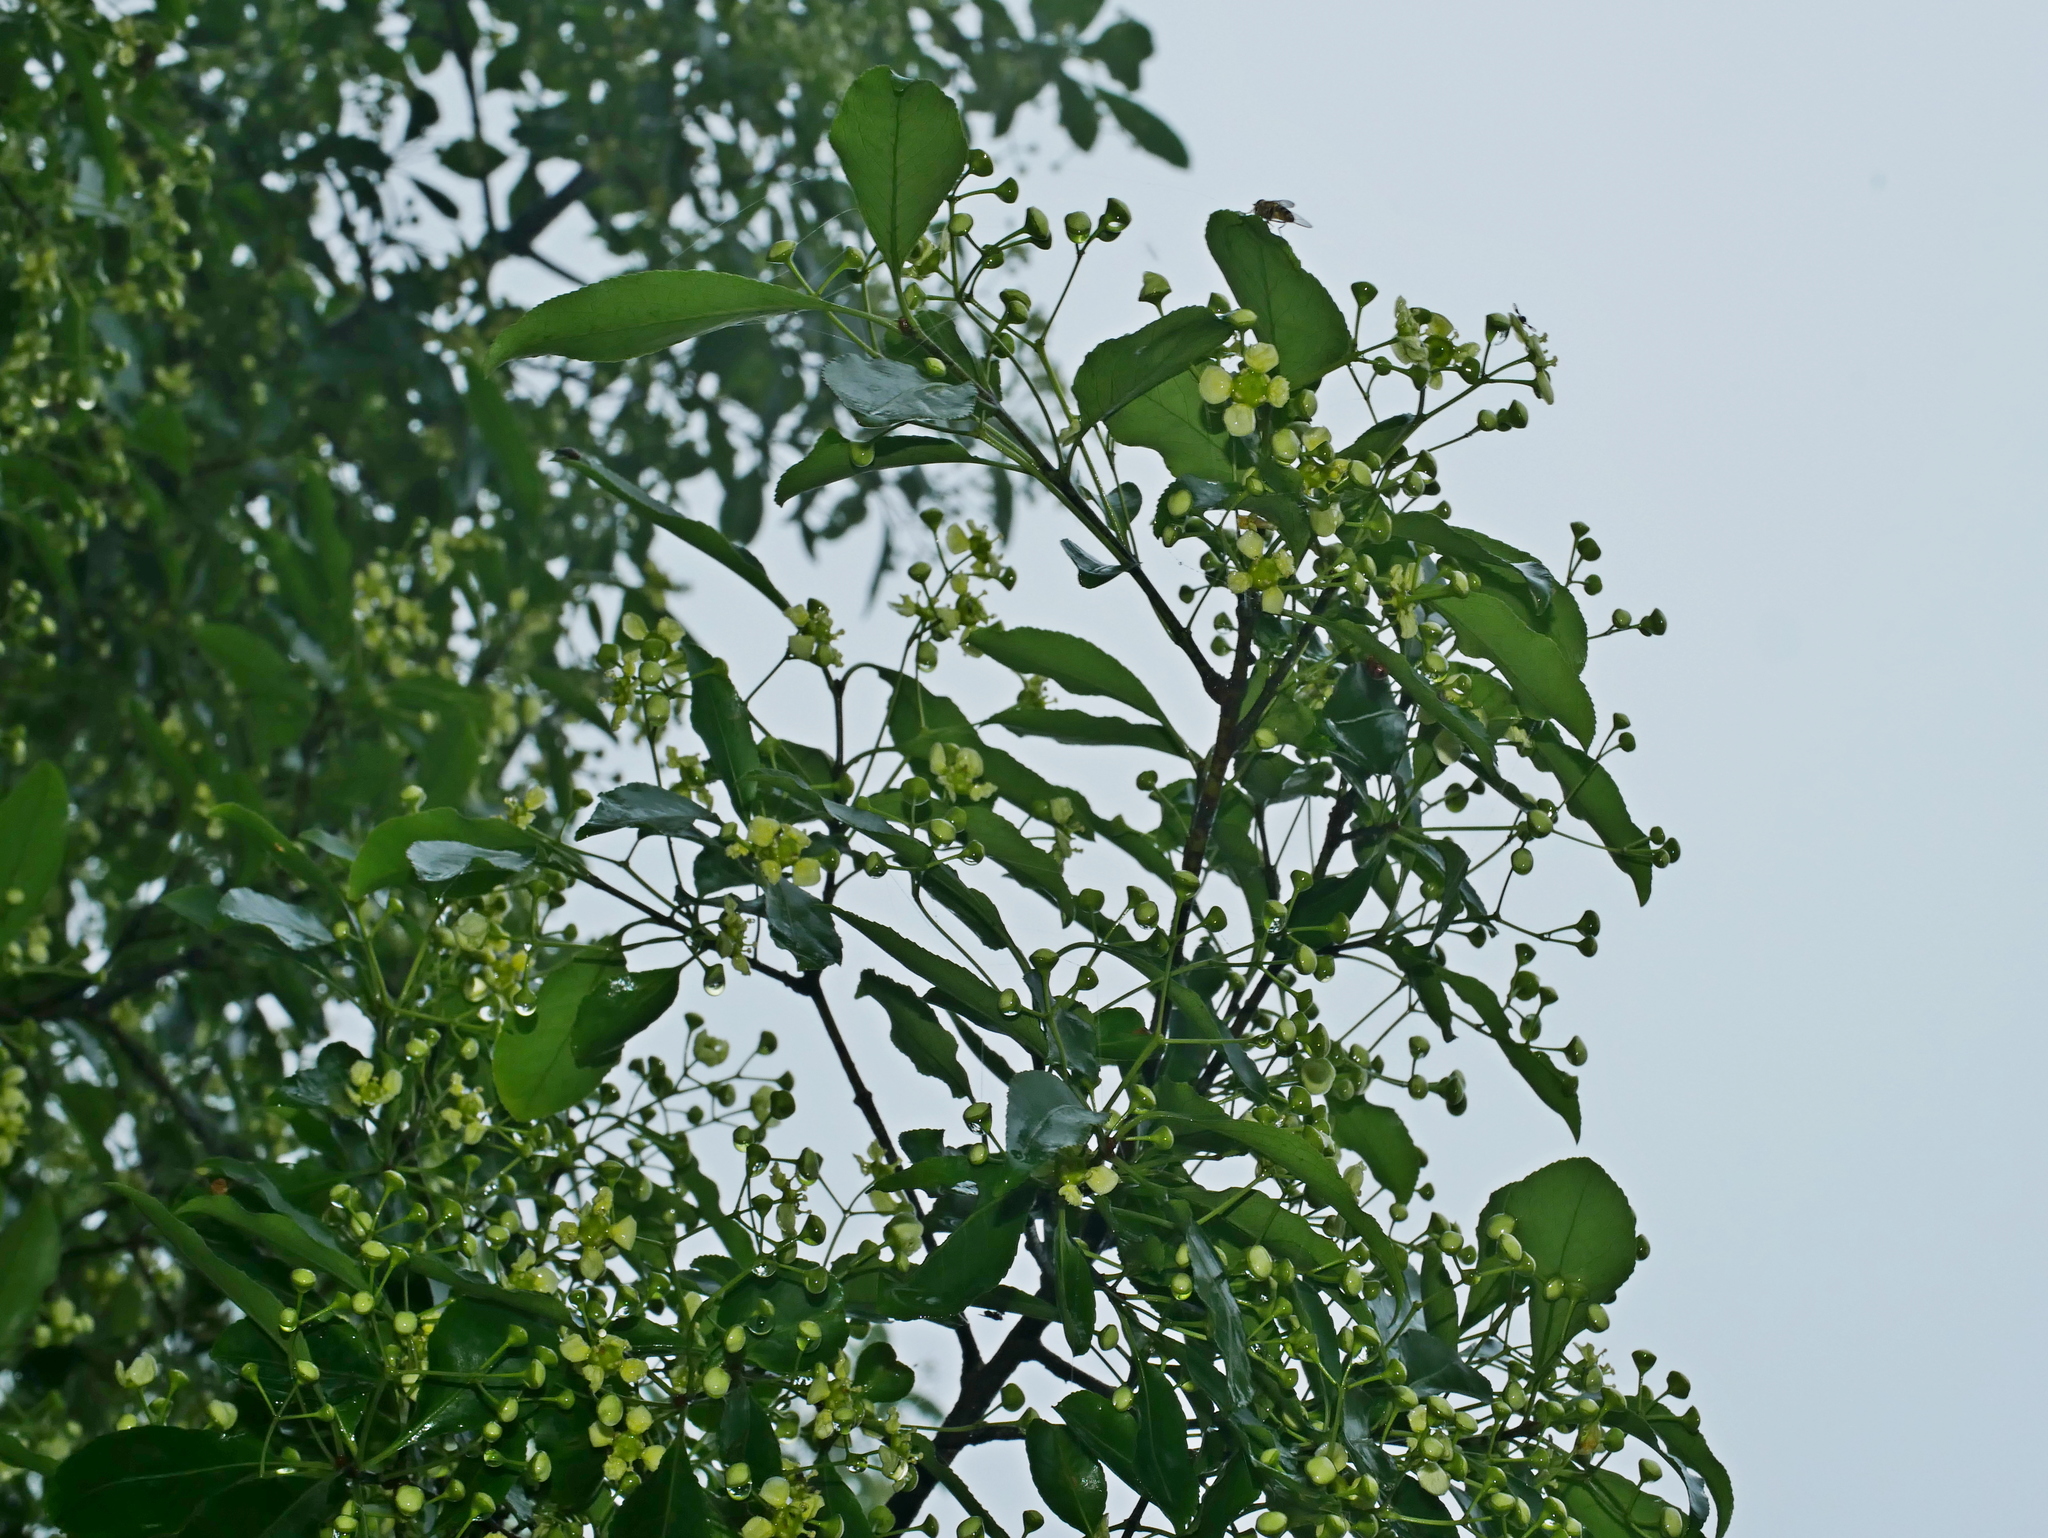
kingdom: Plantae
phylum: Tracheophyta
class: Magnoliopsida
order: Celastrales
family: Celastraceae
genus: Euonymus
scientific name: Euonymus carnosus
